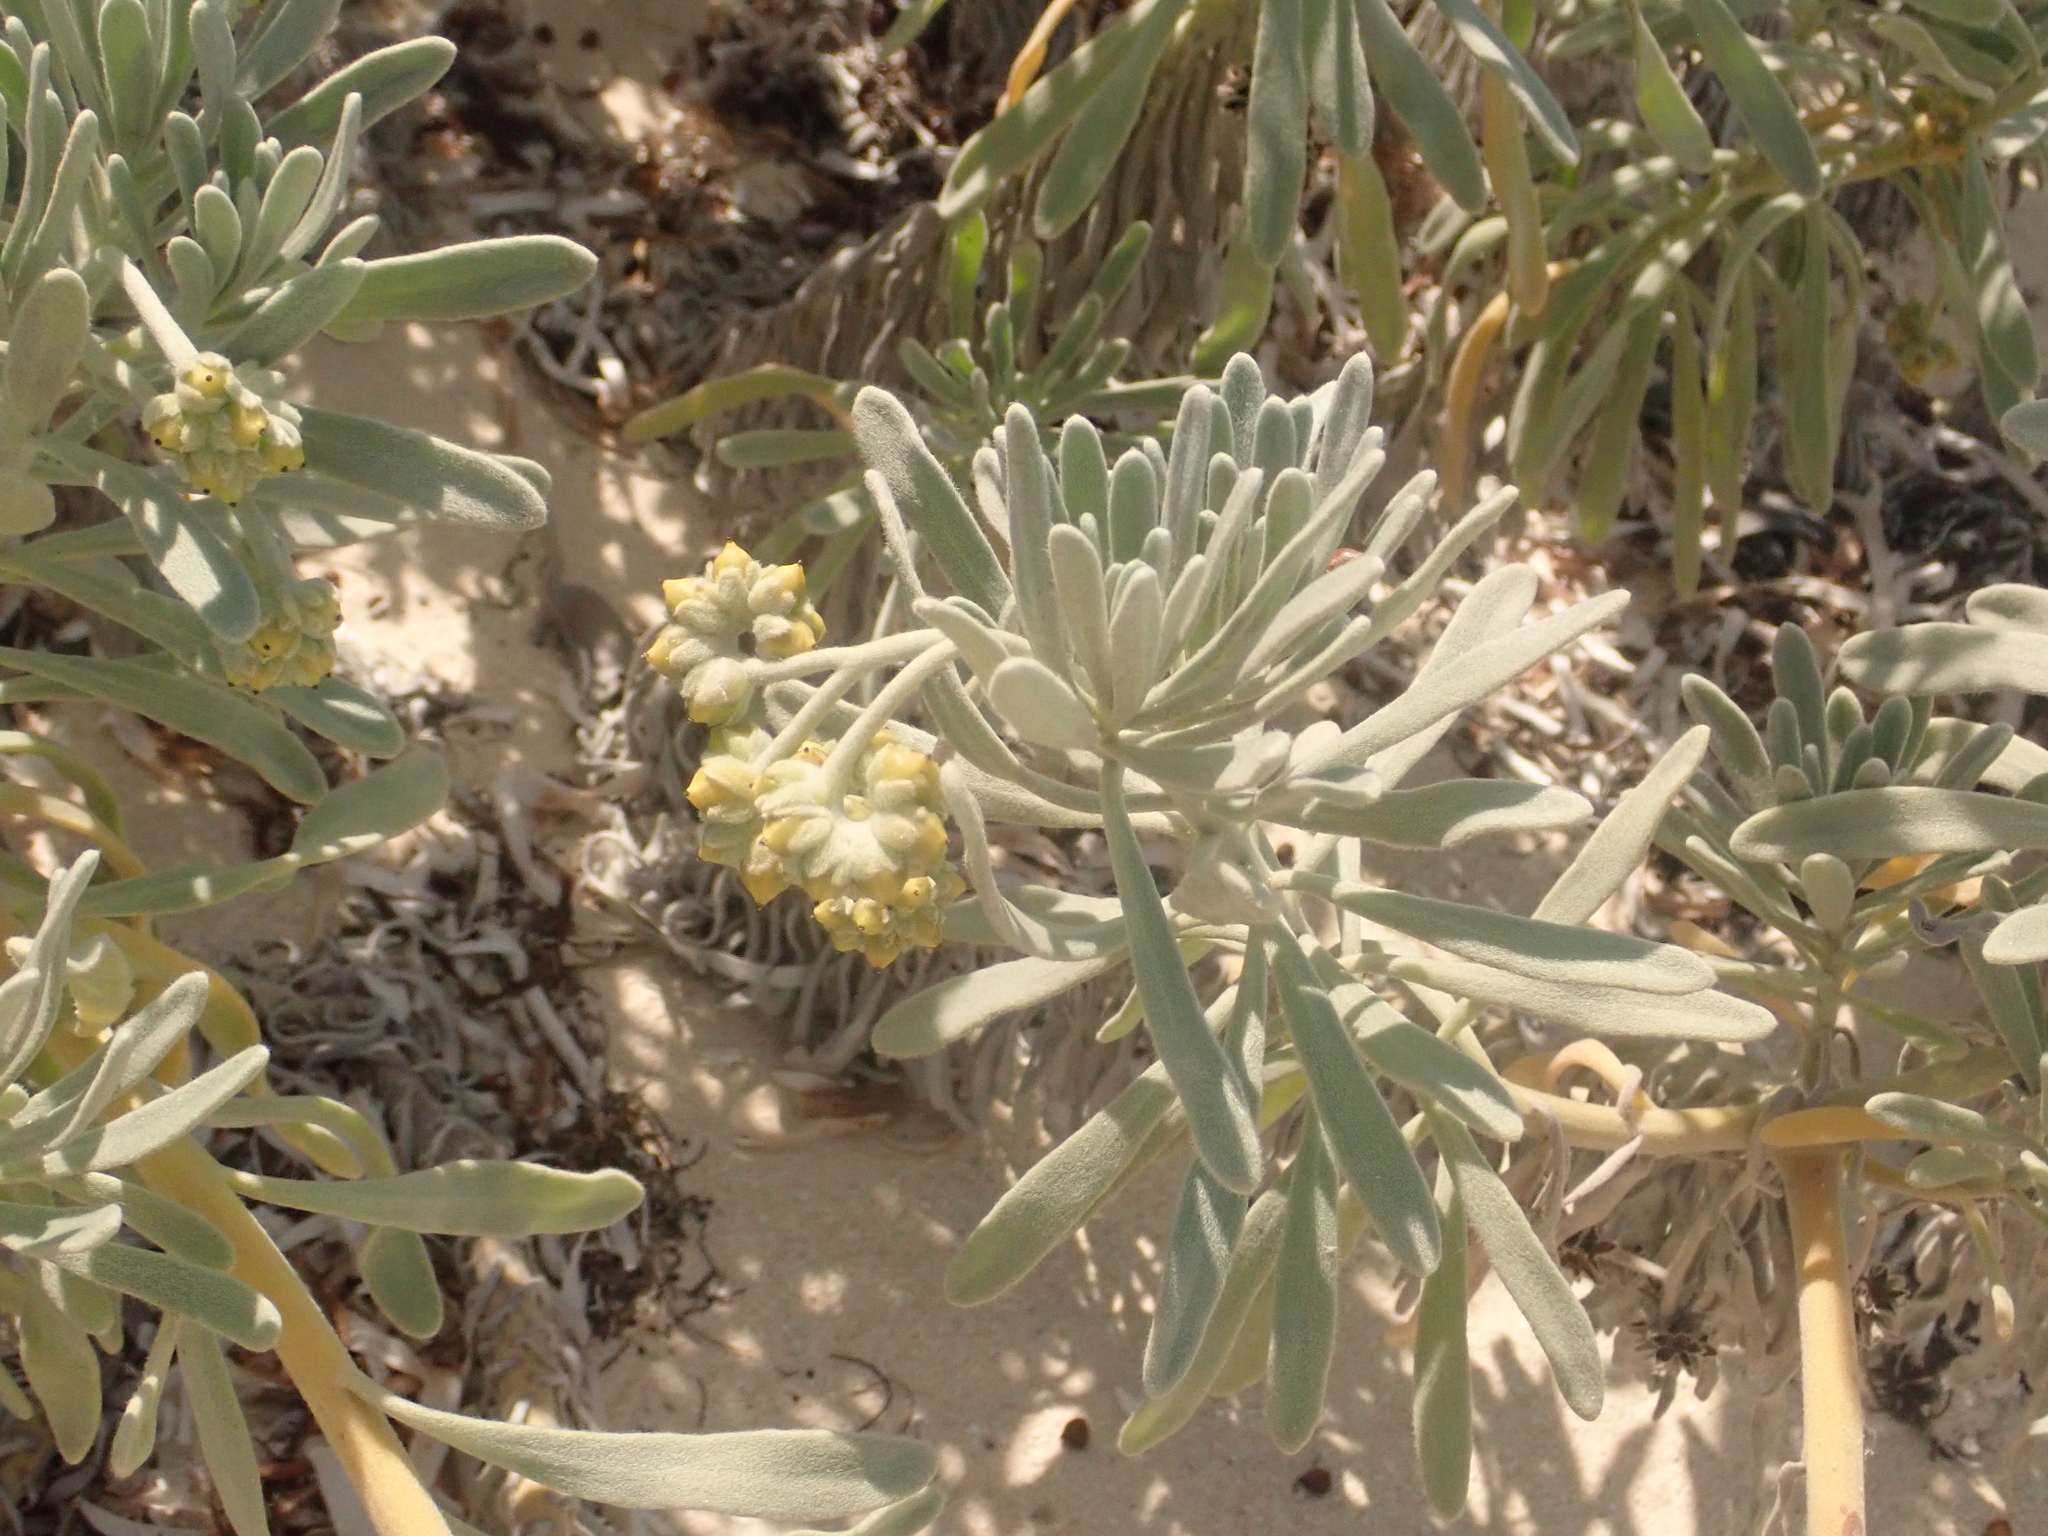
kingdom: Plantae
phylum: Tracheophyta
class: Magnoliopsida
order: Boraginales
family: Heliotropiaceae
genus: Tournefortia
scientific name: Tournefortia gnaphalodes
